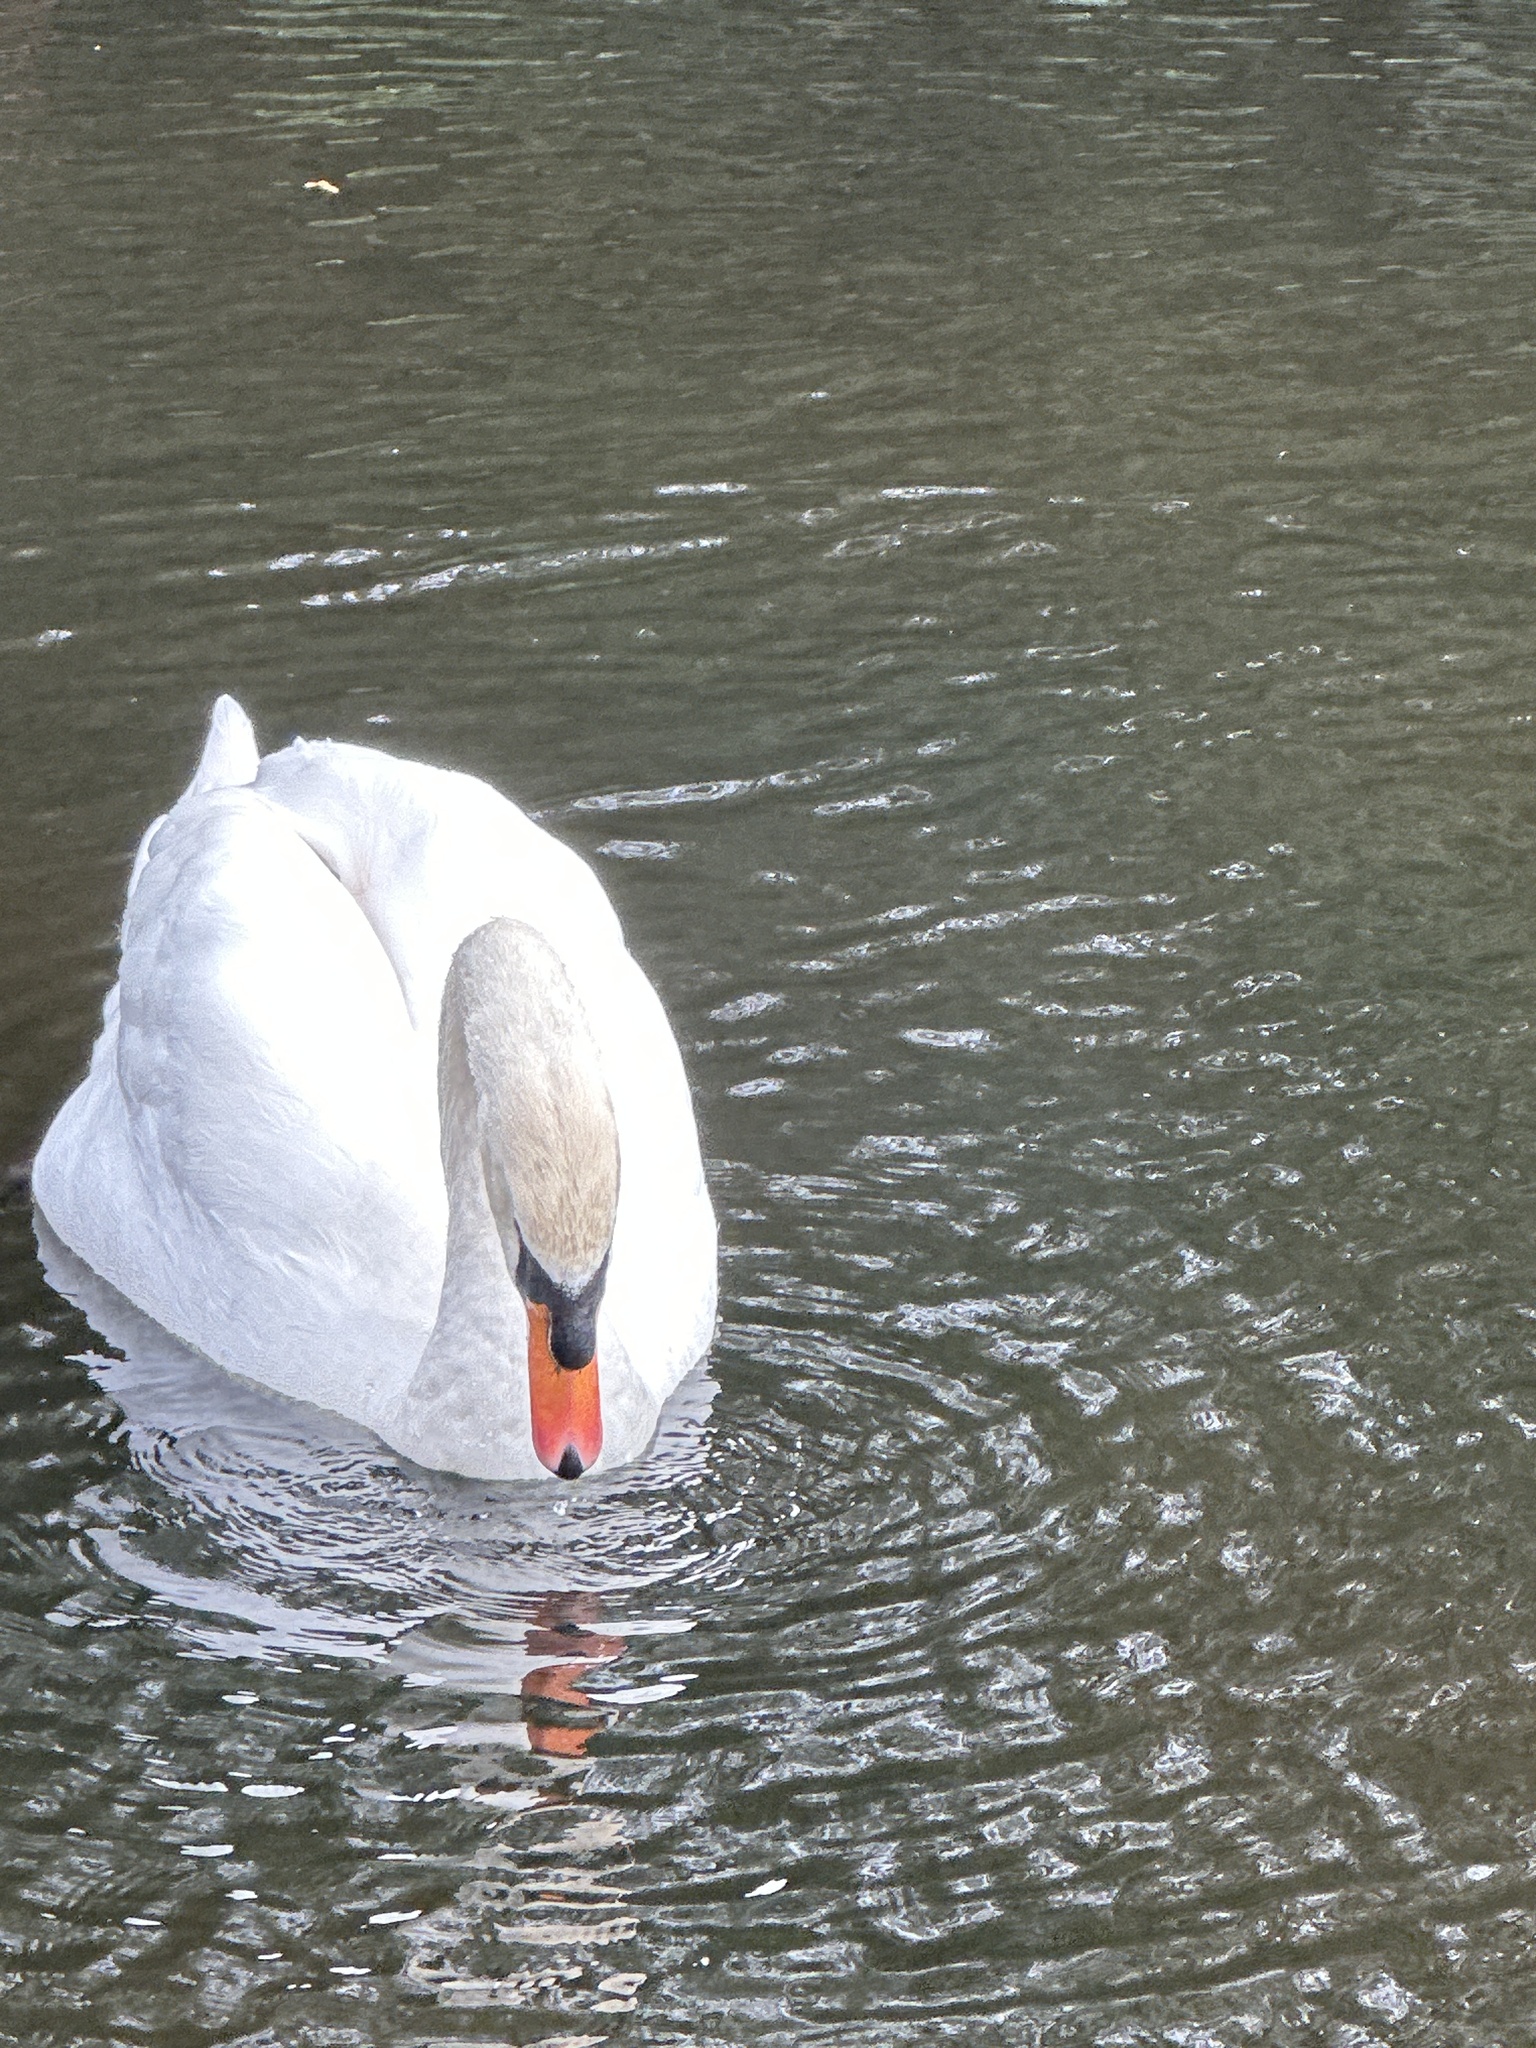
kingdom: Animalia
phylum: Chordata
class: Aves
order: Anseriformes
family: Anatidae
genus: Cygnus
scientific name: Cygnus olor
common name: Mute swan
